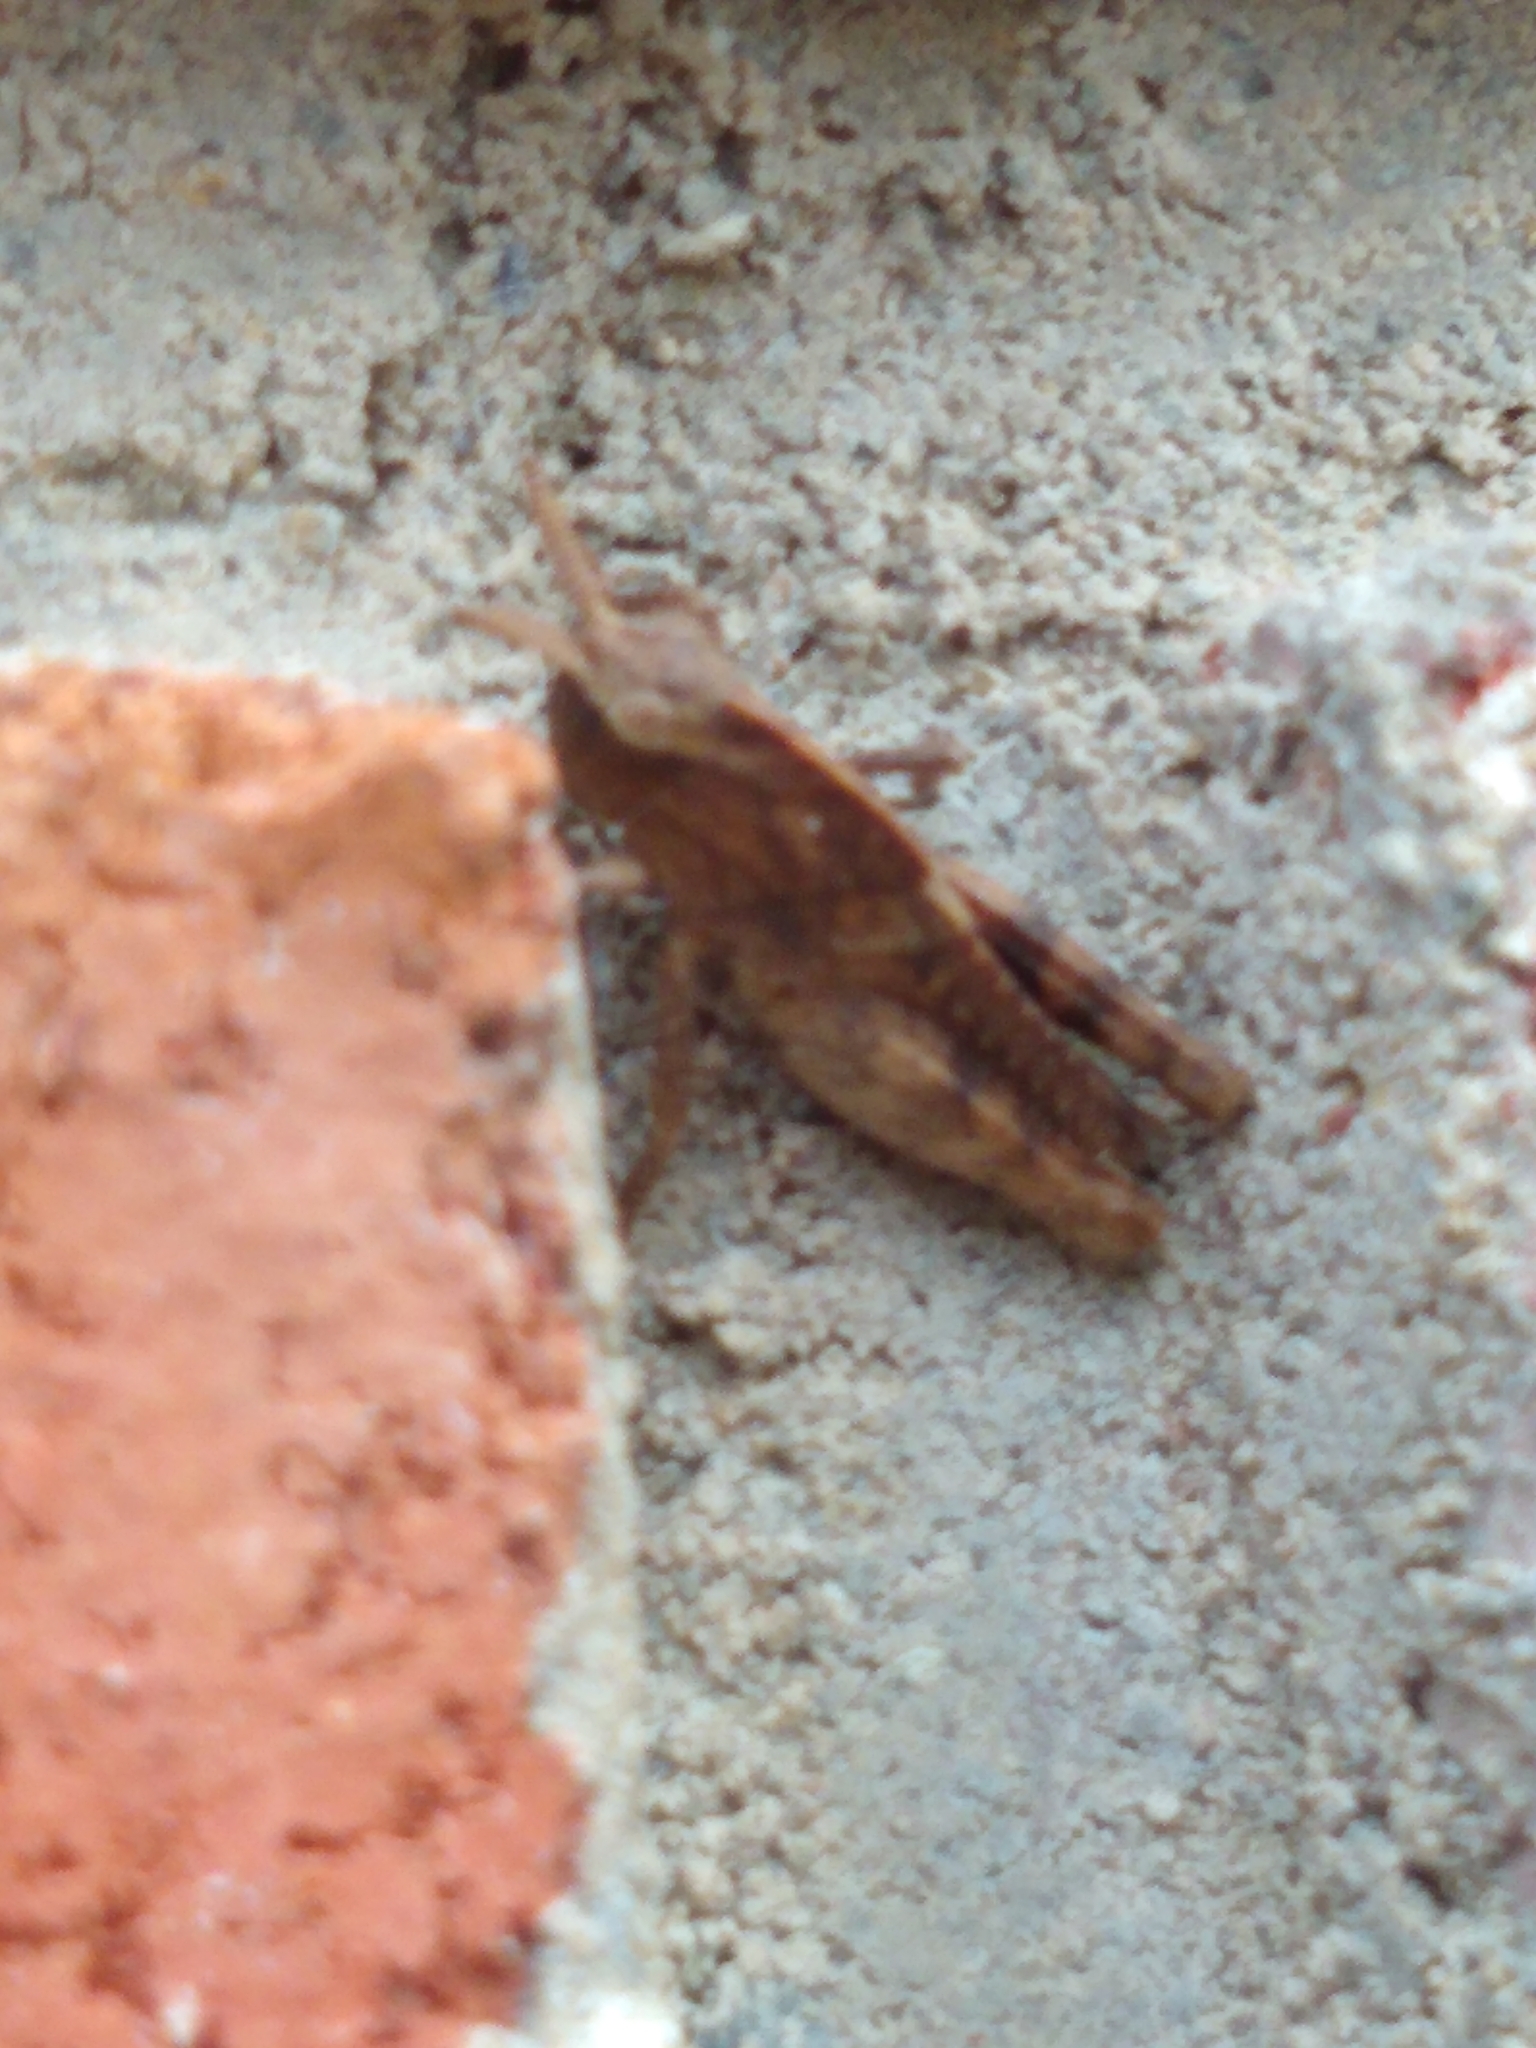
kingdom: Animalia
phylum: Arthropoda
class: Insecta
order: Orthoptera
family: Acrididae
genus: Chortophaga
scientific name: Chortophaga viridifasciata
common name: Green-striped grasshopper
